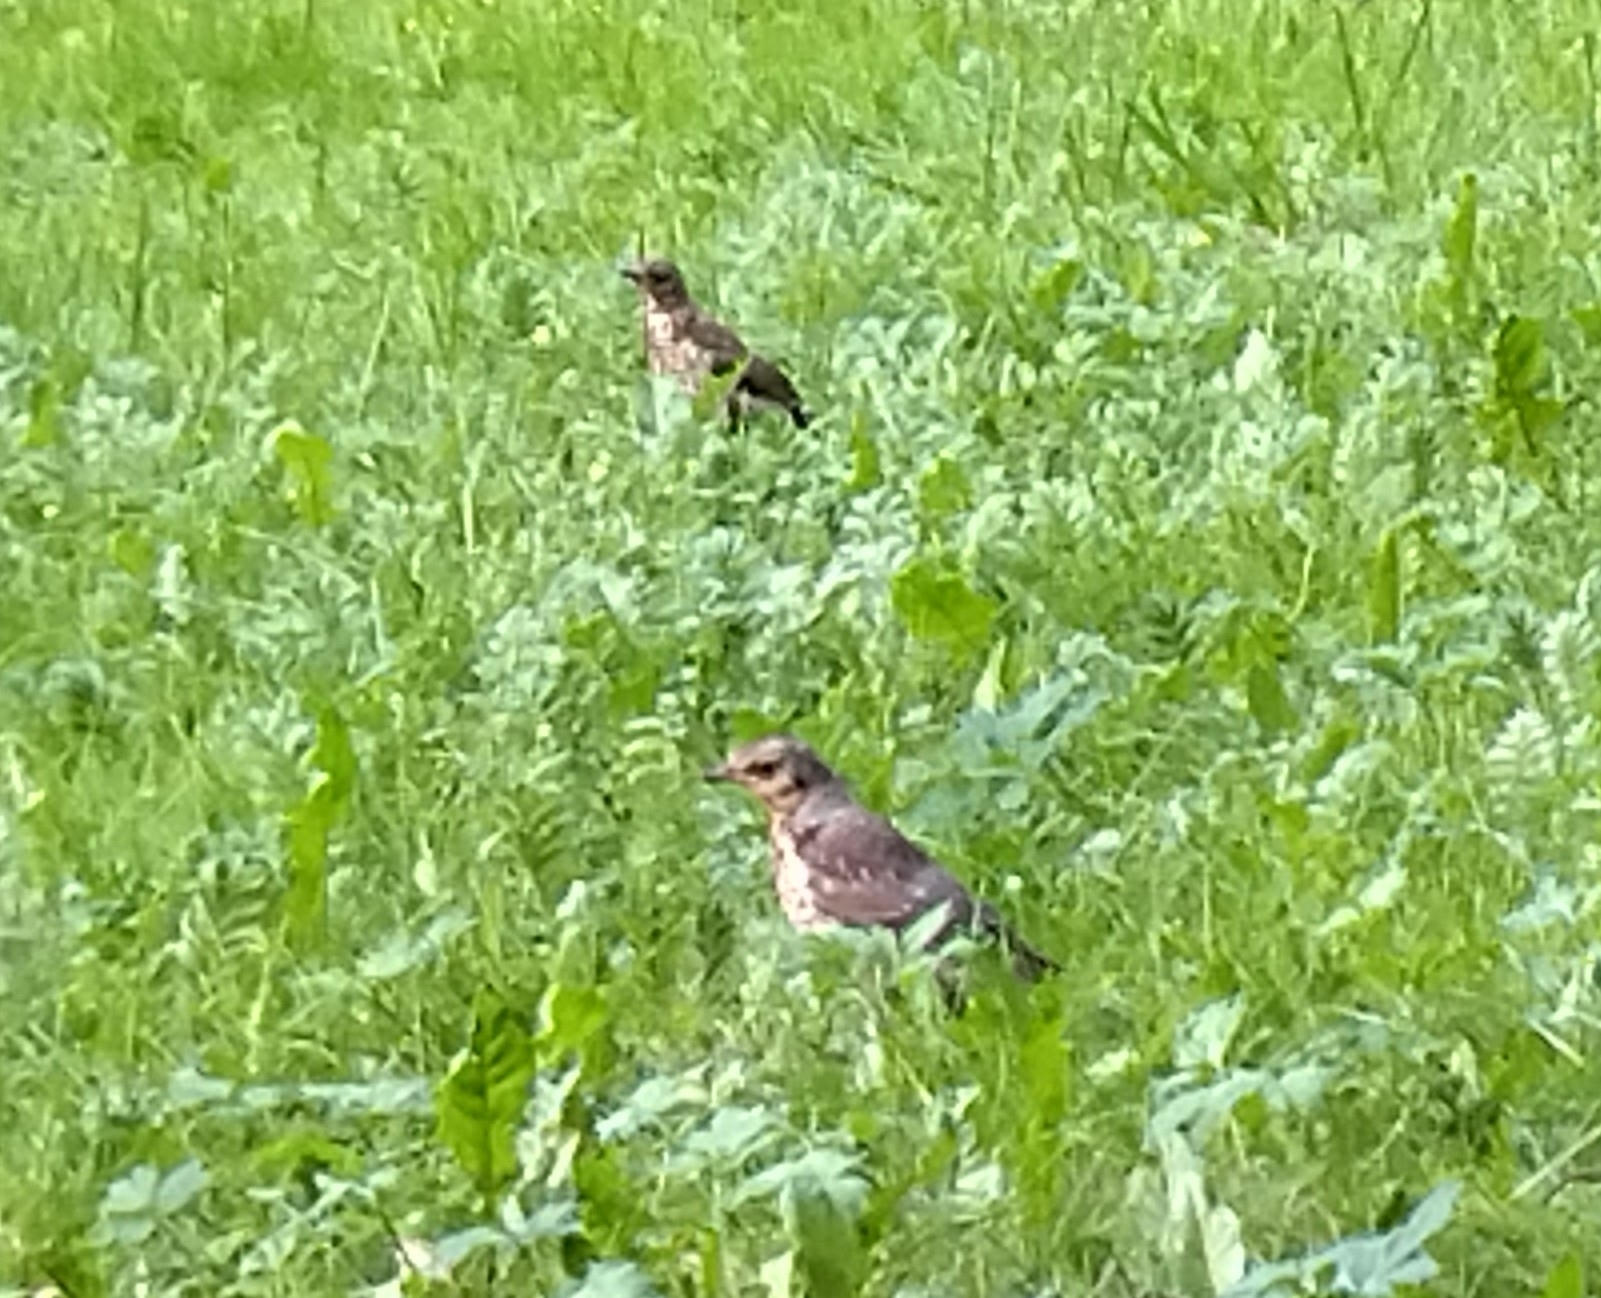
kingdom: Animalia
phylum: Chordata
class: Aves
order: Passeriformes
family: Turdidae
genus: Turdus
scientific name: Turdus pilaris
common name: Fieldfare
